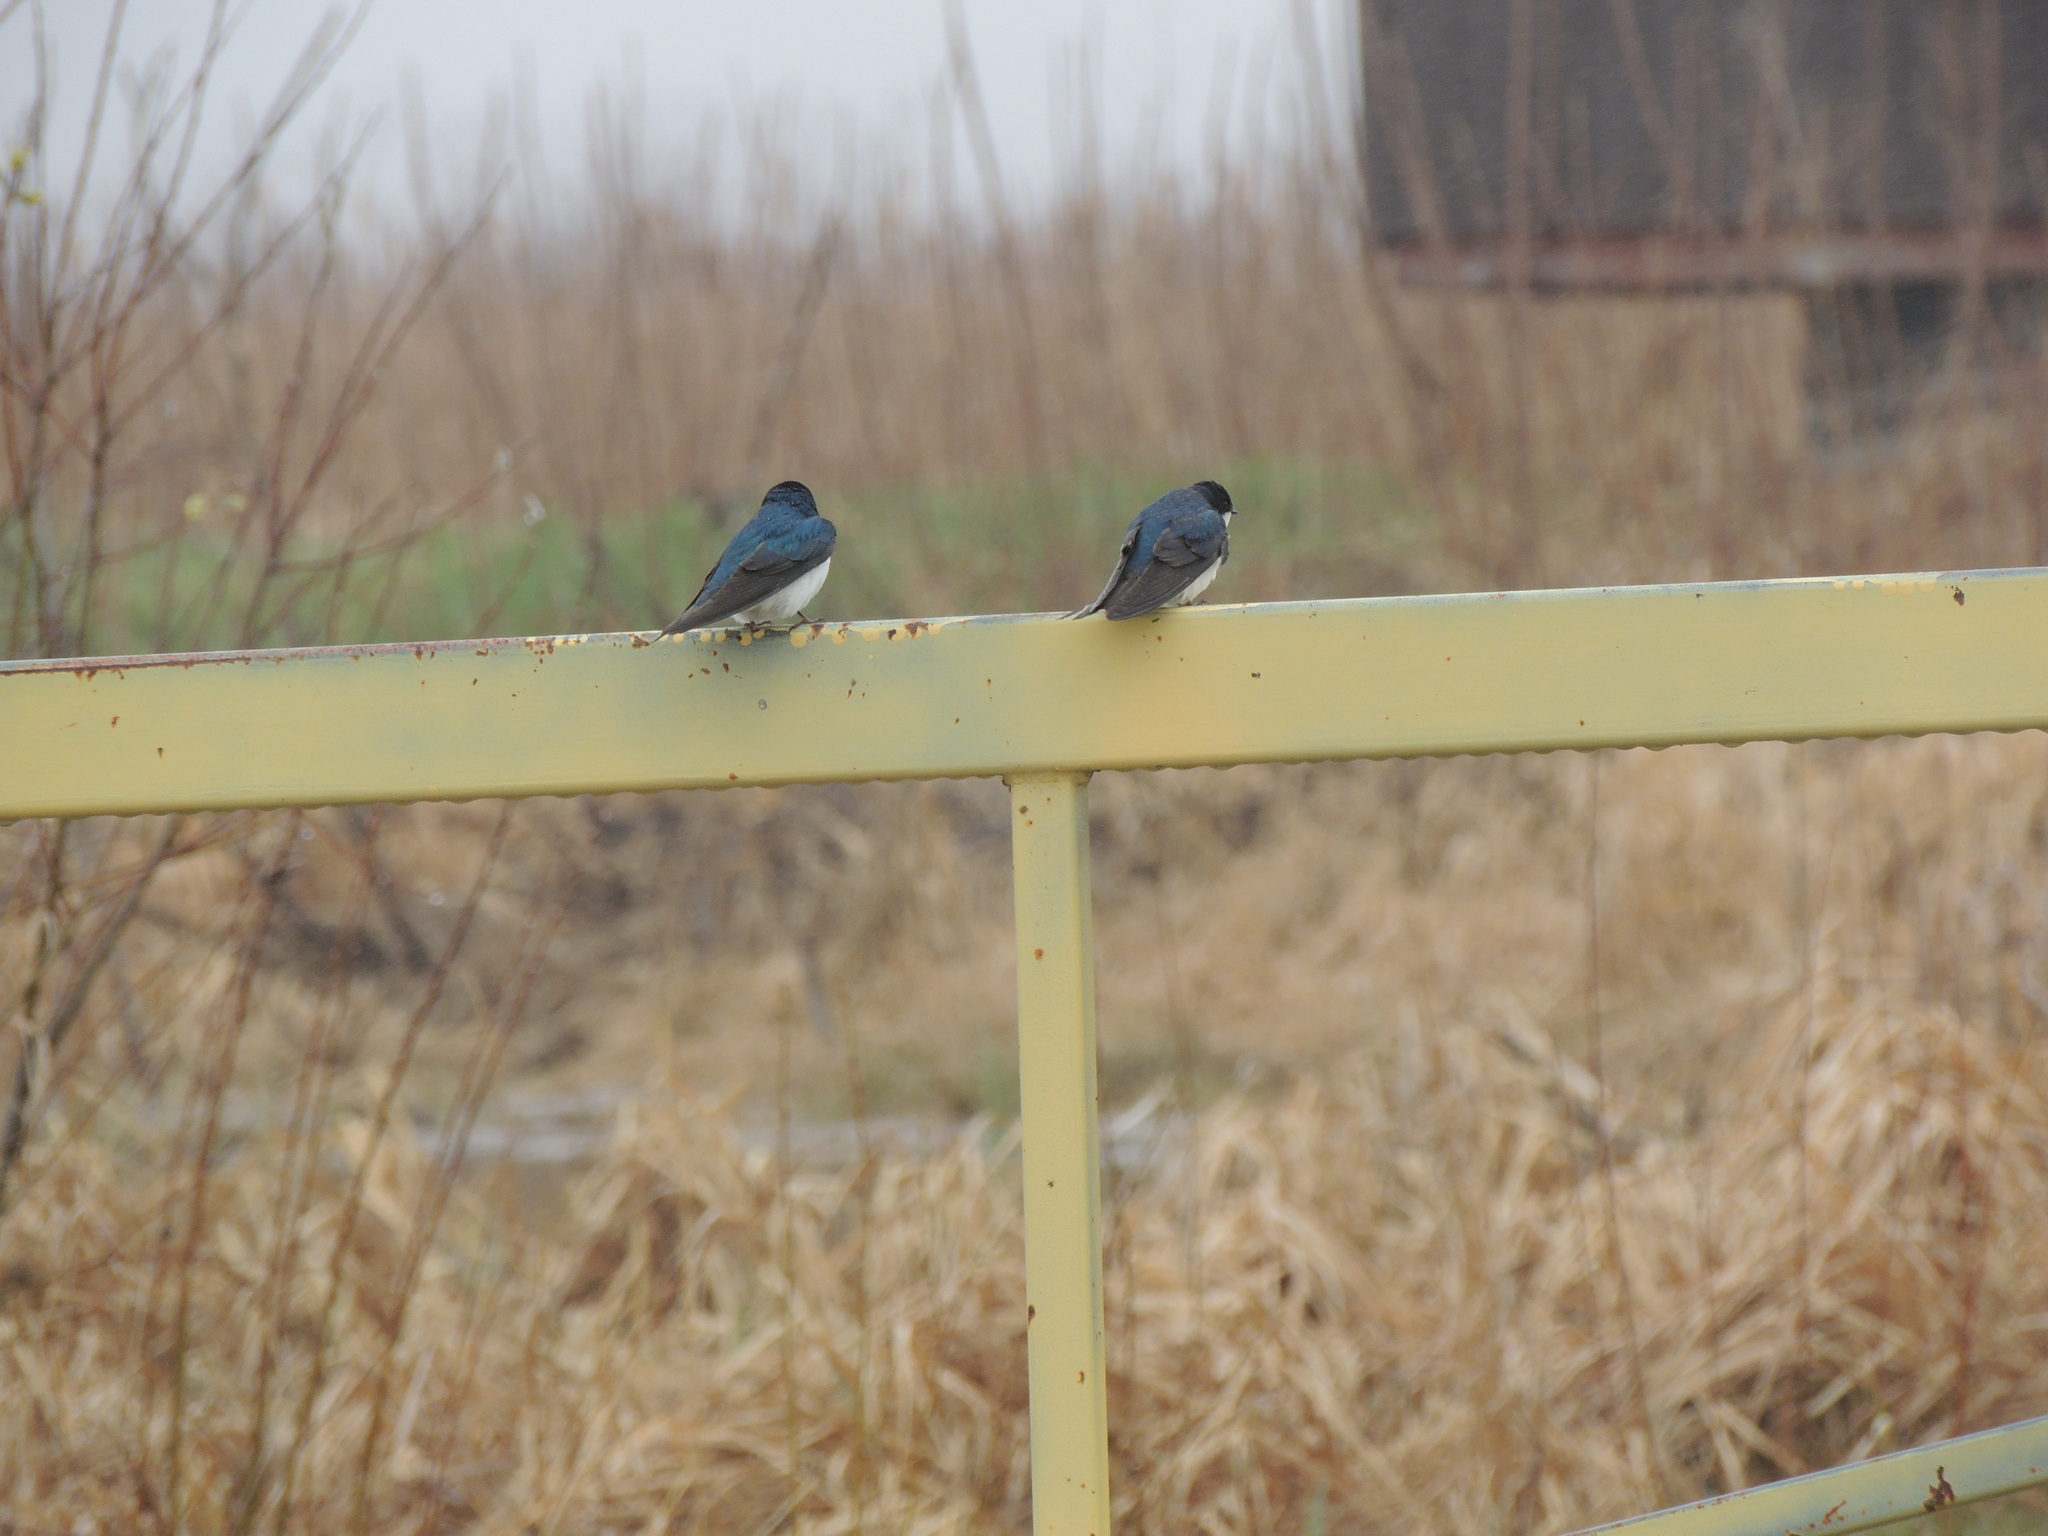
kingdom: Animalia
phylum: Chordata
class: Aves
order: Passeriformes
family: Hirundinidae
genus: Tachycineta
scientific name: Tachycineta bicolor
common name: Tree swallow
